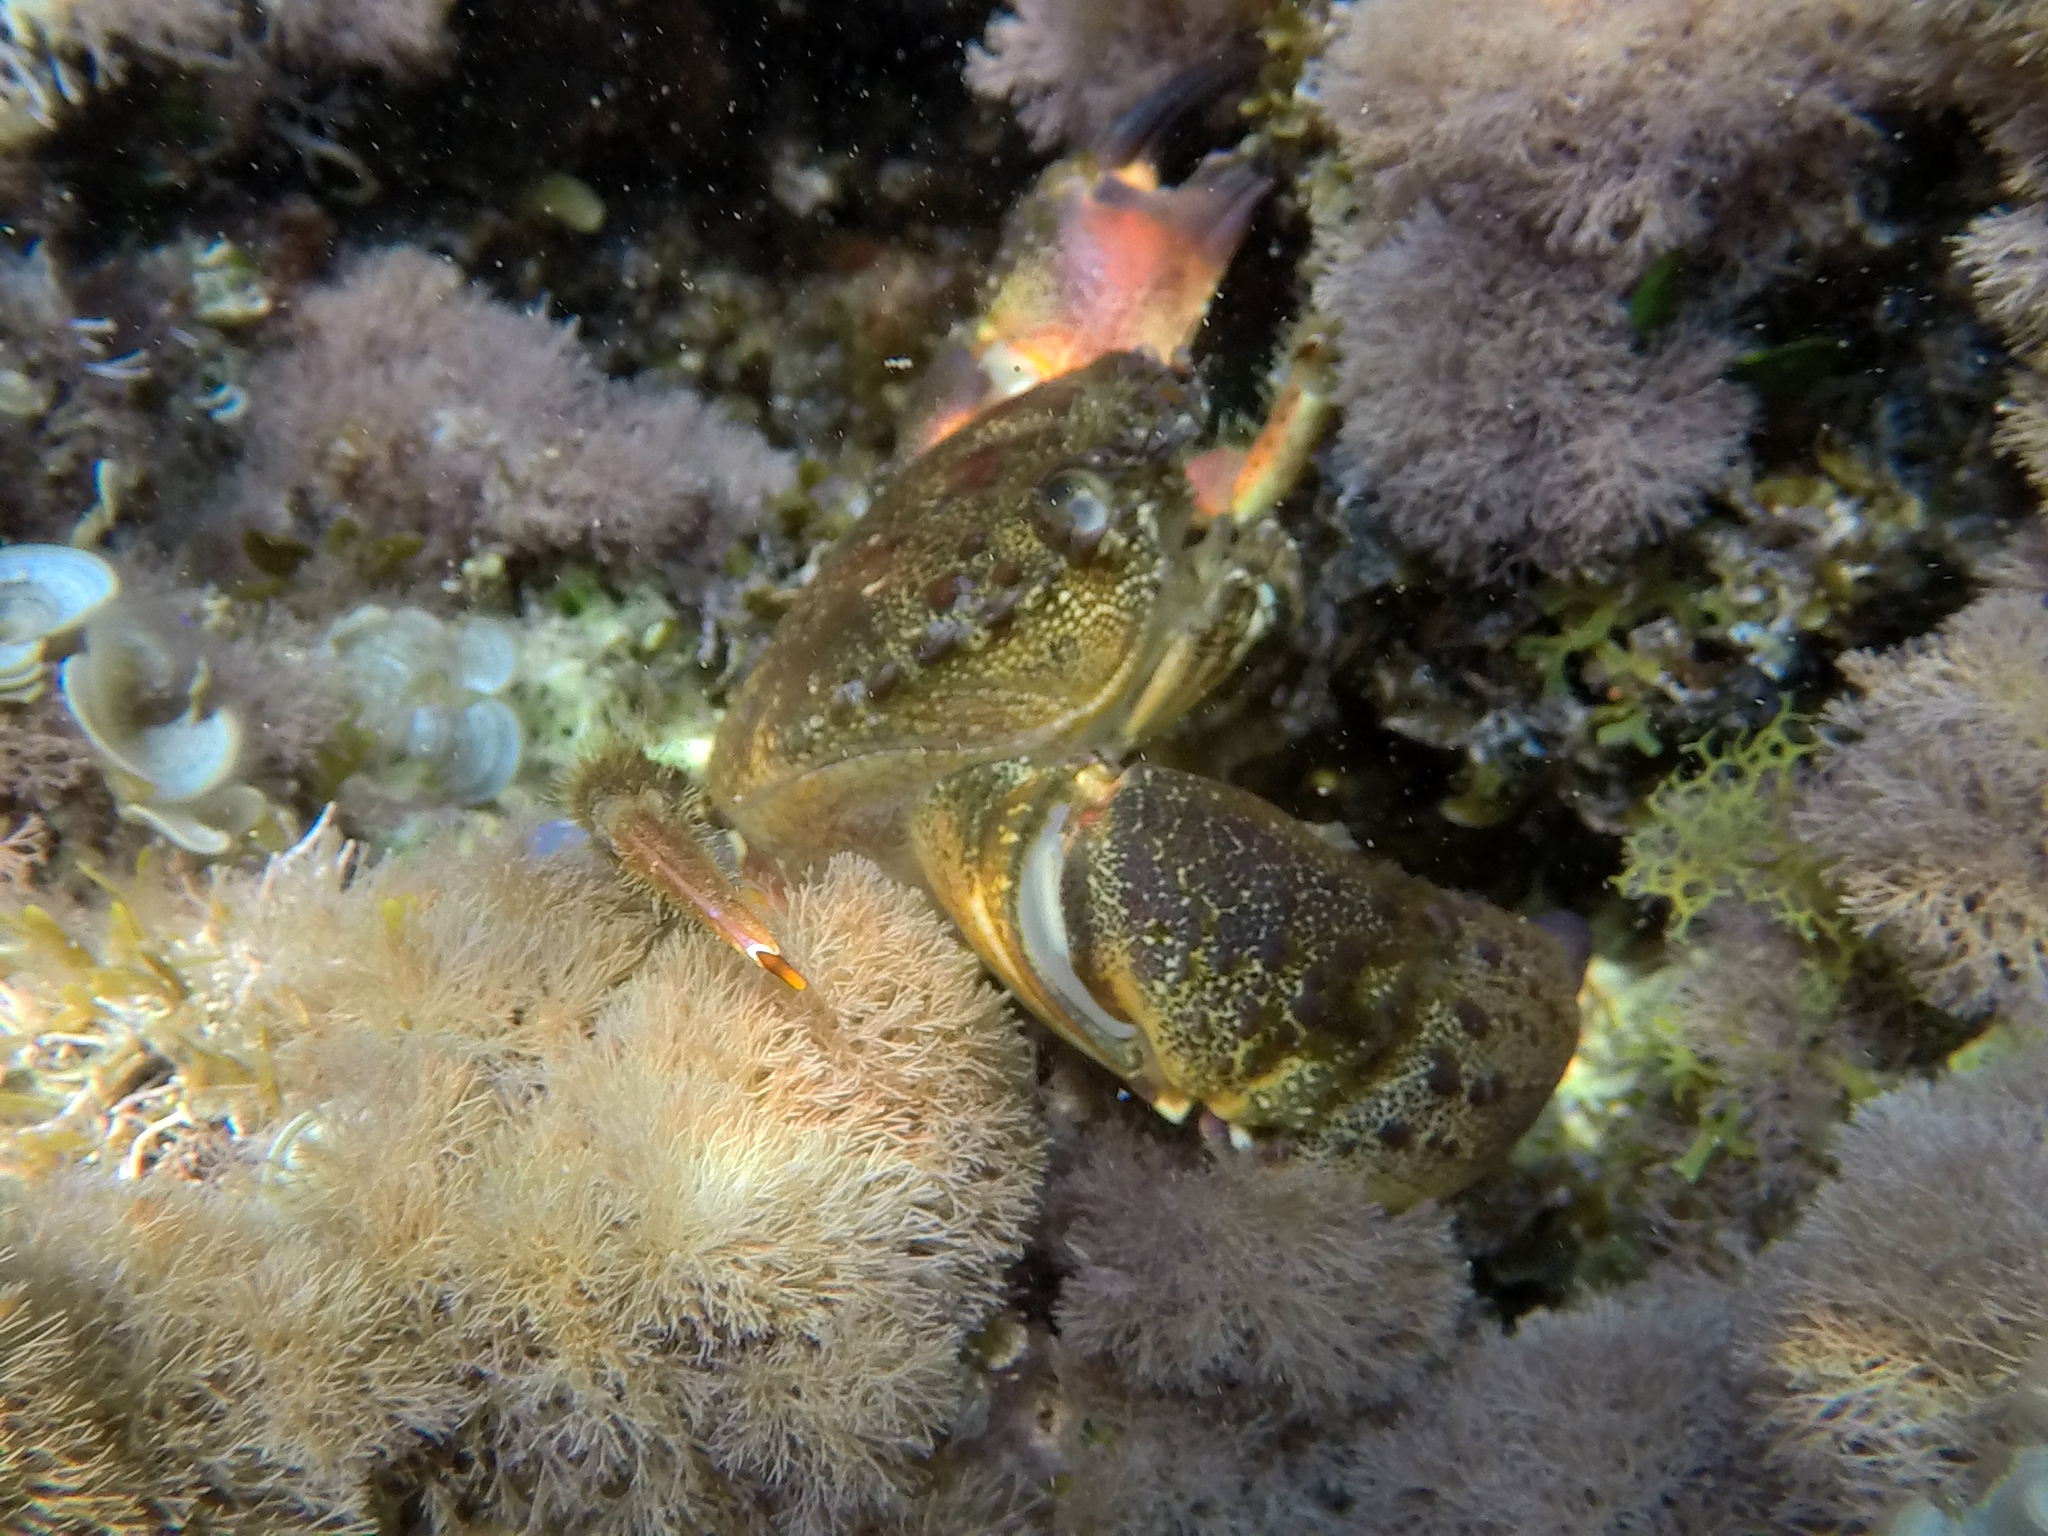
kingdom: Animalia
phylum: Arthropoda
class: Malacostraca
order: Decapoda
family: Eriphiidae
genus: Eriphia
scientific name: Eriphia verrucosa
